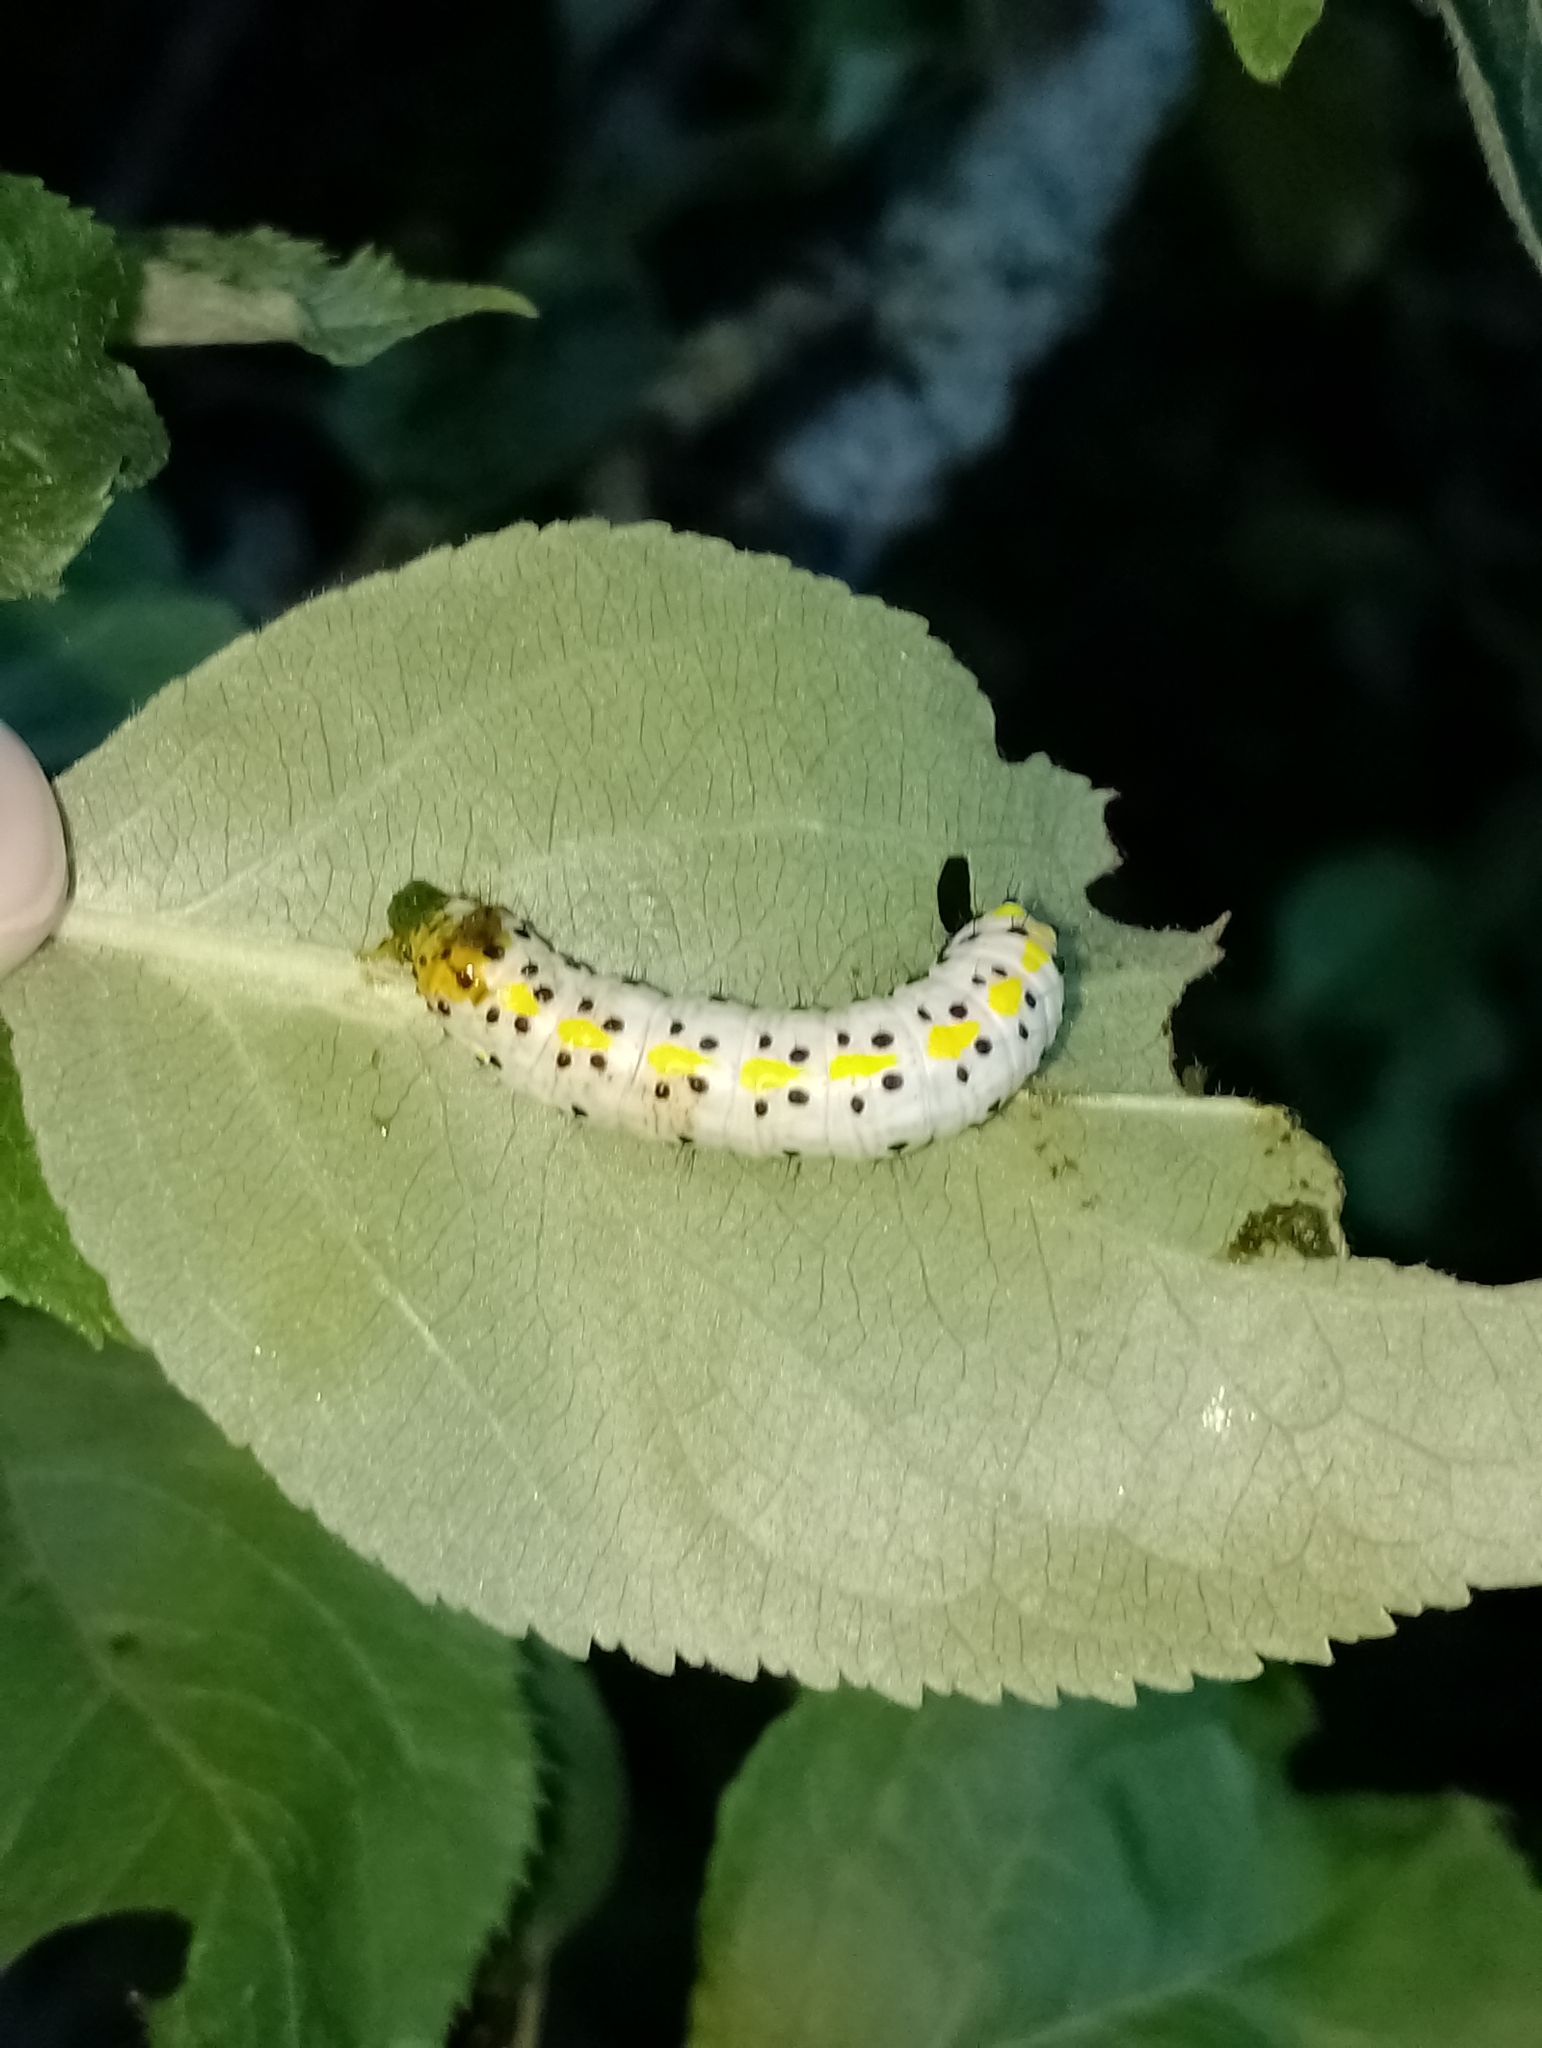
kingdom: Animalia
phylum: Arthropoda
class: Insecta
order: Lepidoptera
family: Noctuidae
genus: Diloba
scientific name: Diloba caeruleocephala
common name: Figure of eight
